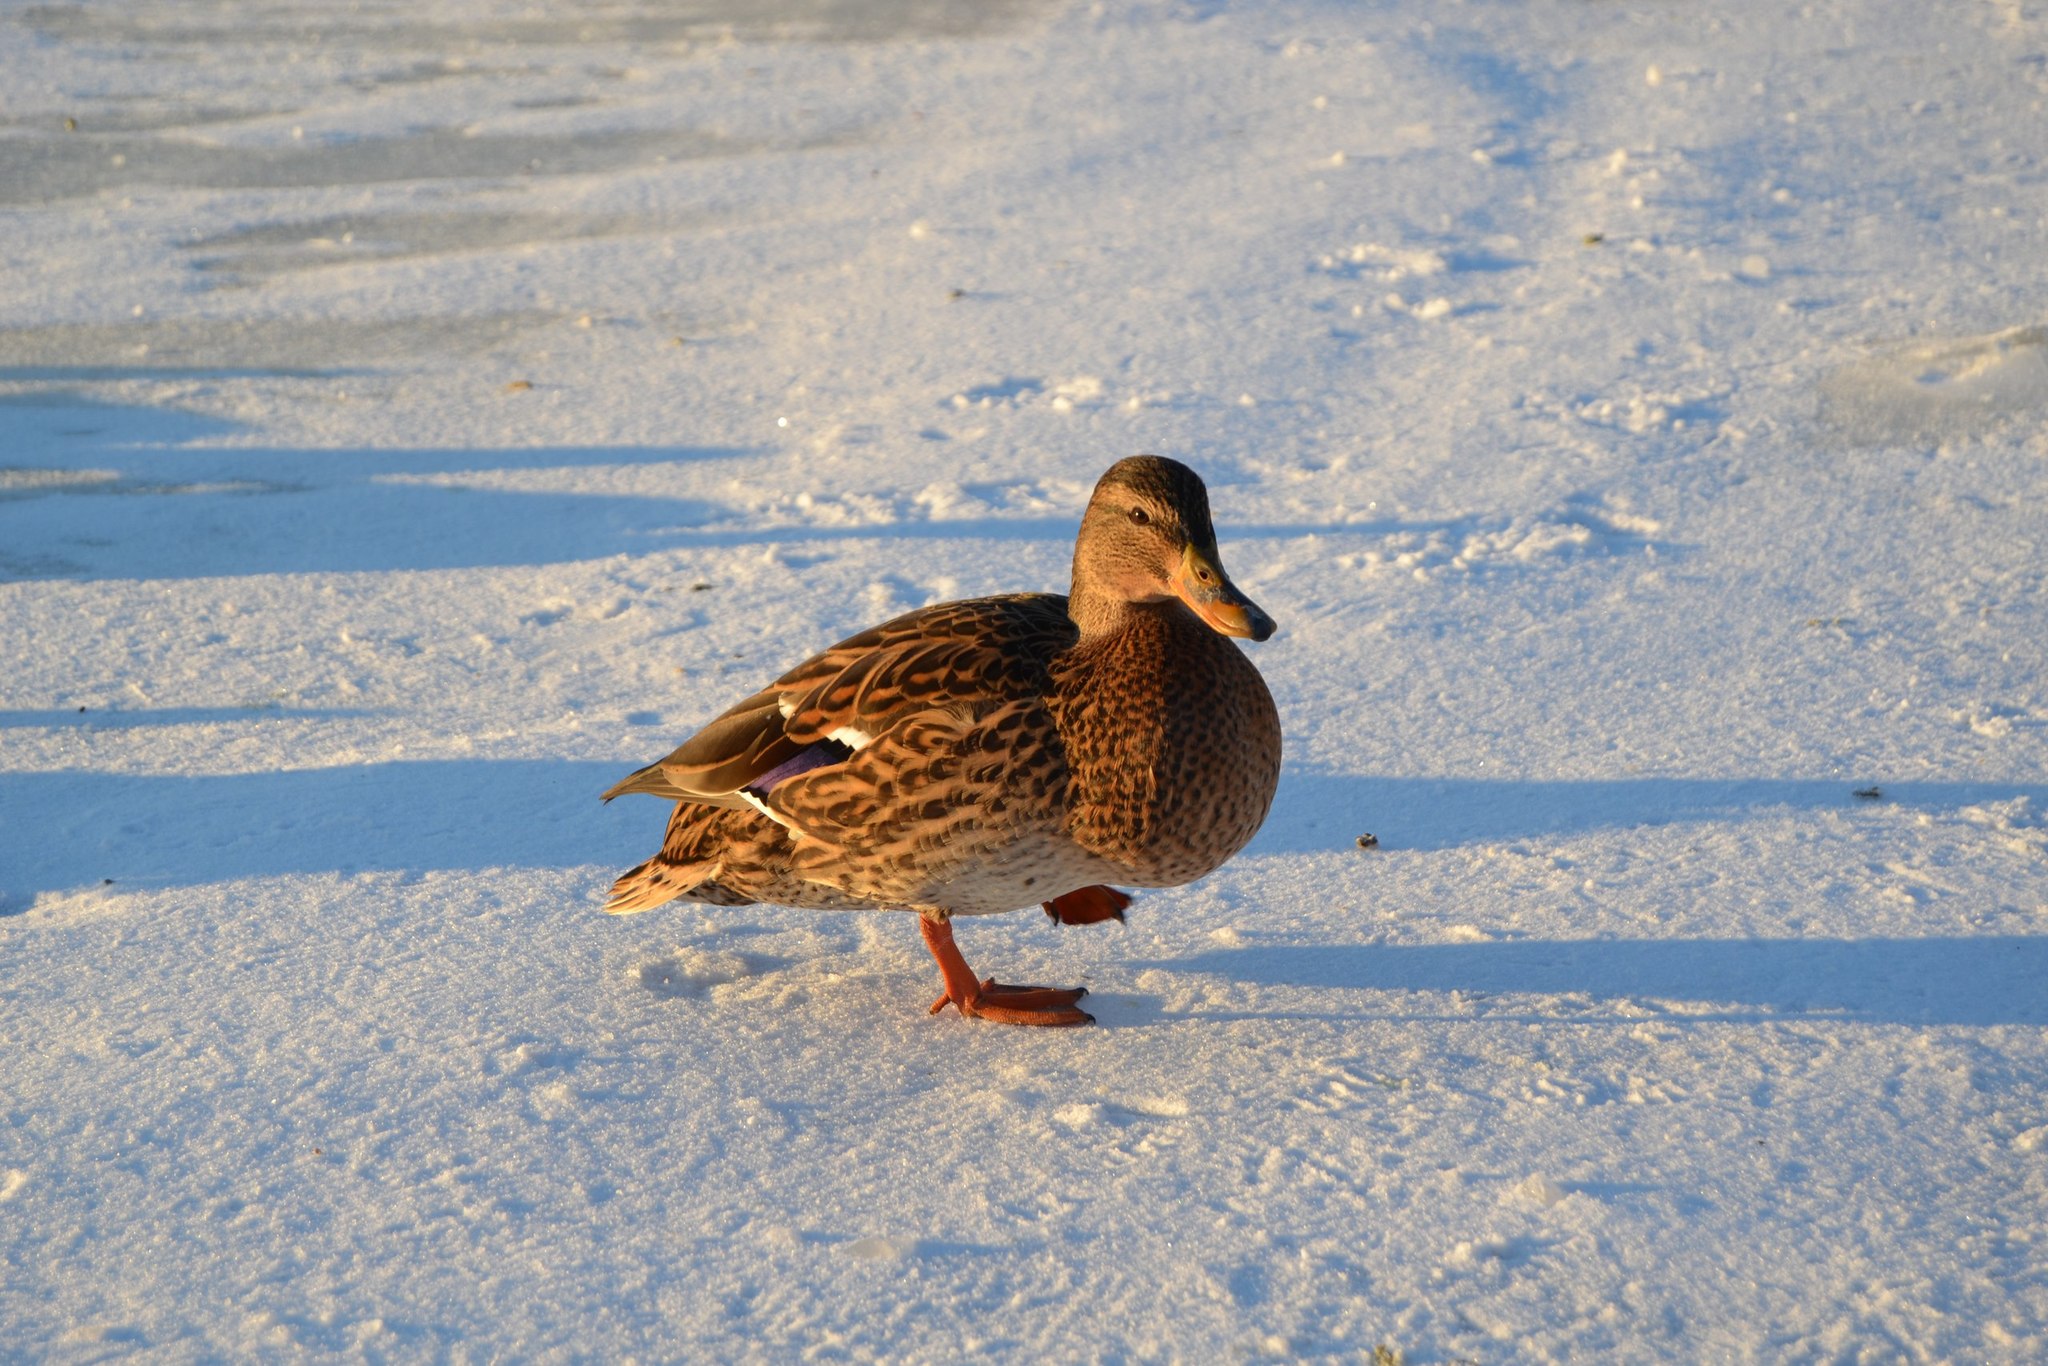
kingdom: Animalia
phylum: Chordata
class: Aves
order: Anseriformes
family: Anatidae
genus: Anas
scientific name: Anas platyrhynchos
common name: Mallard
